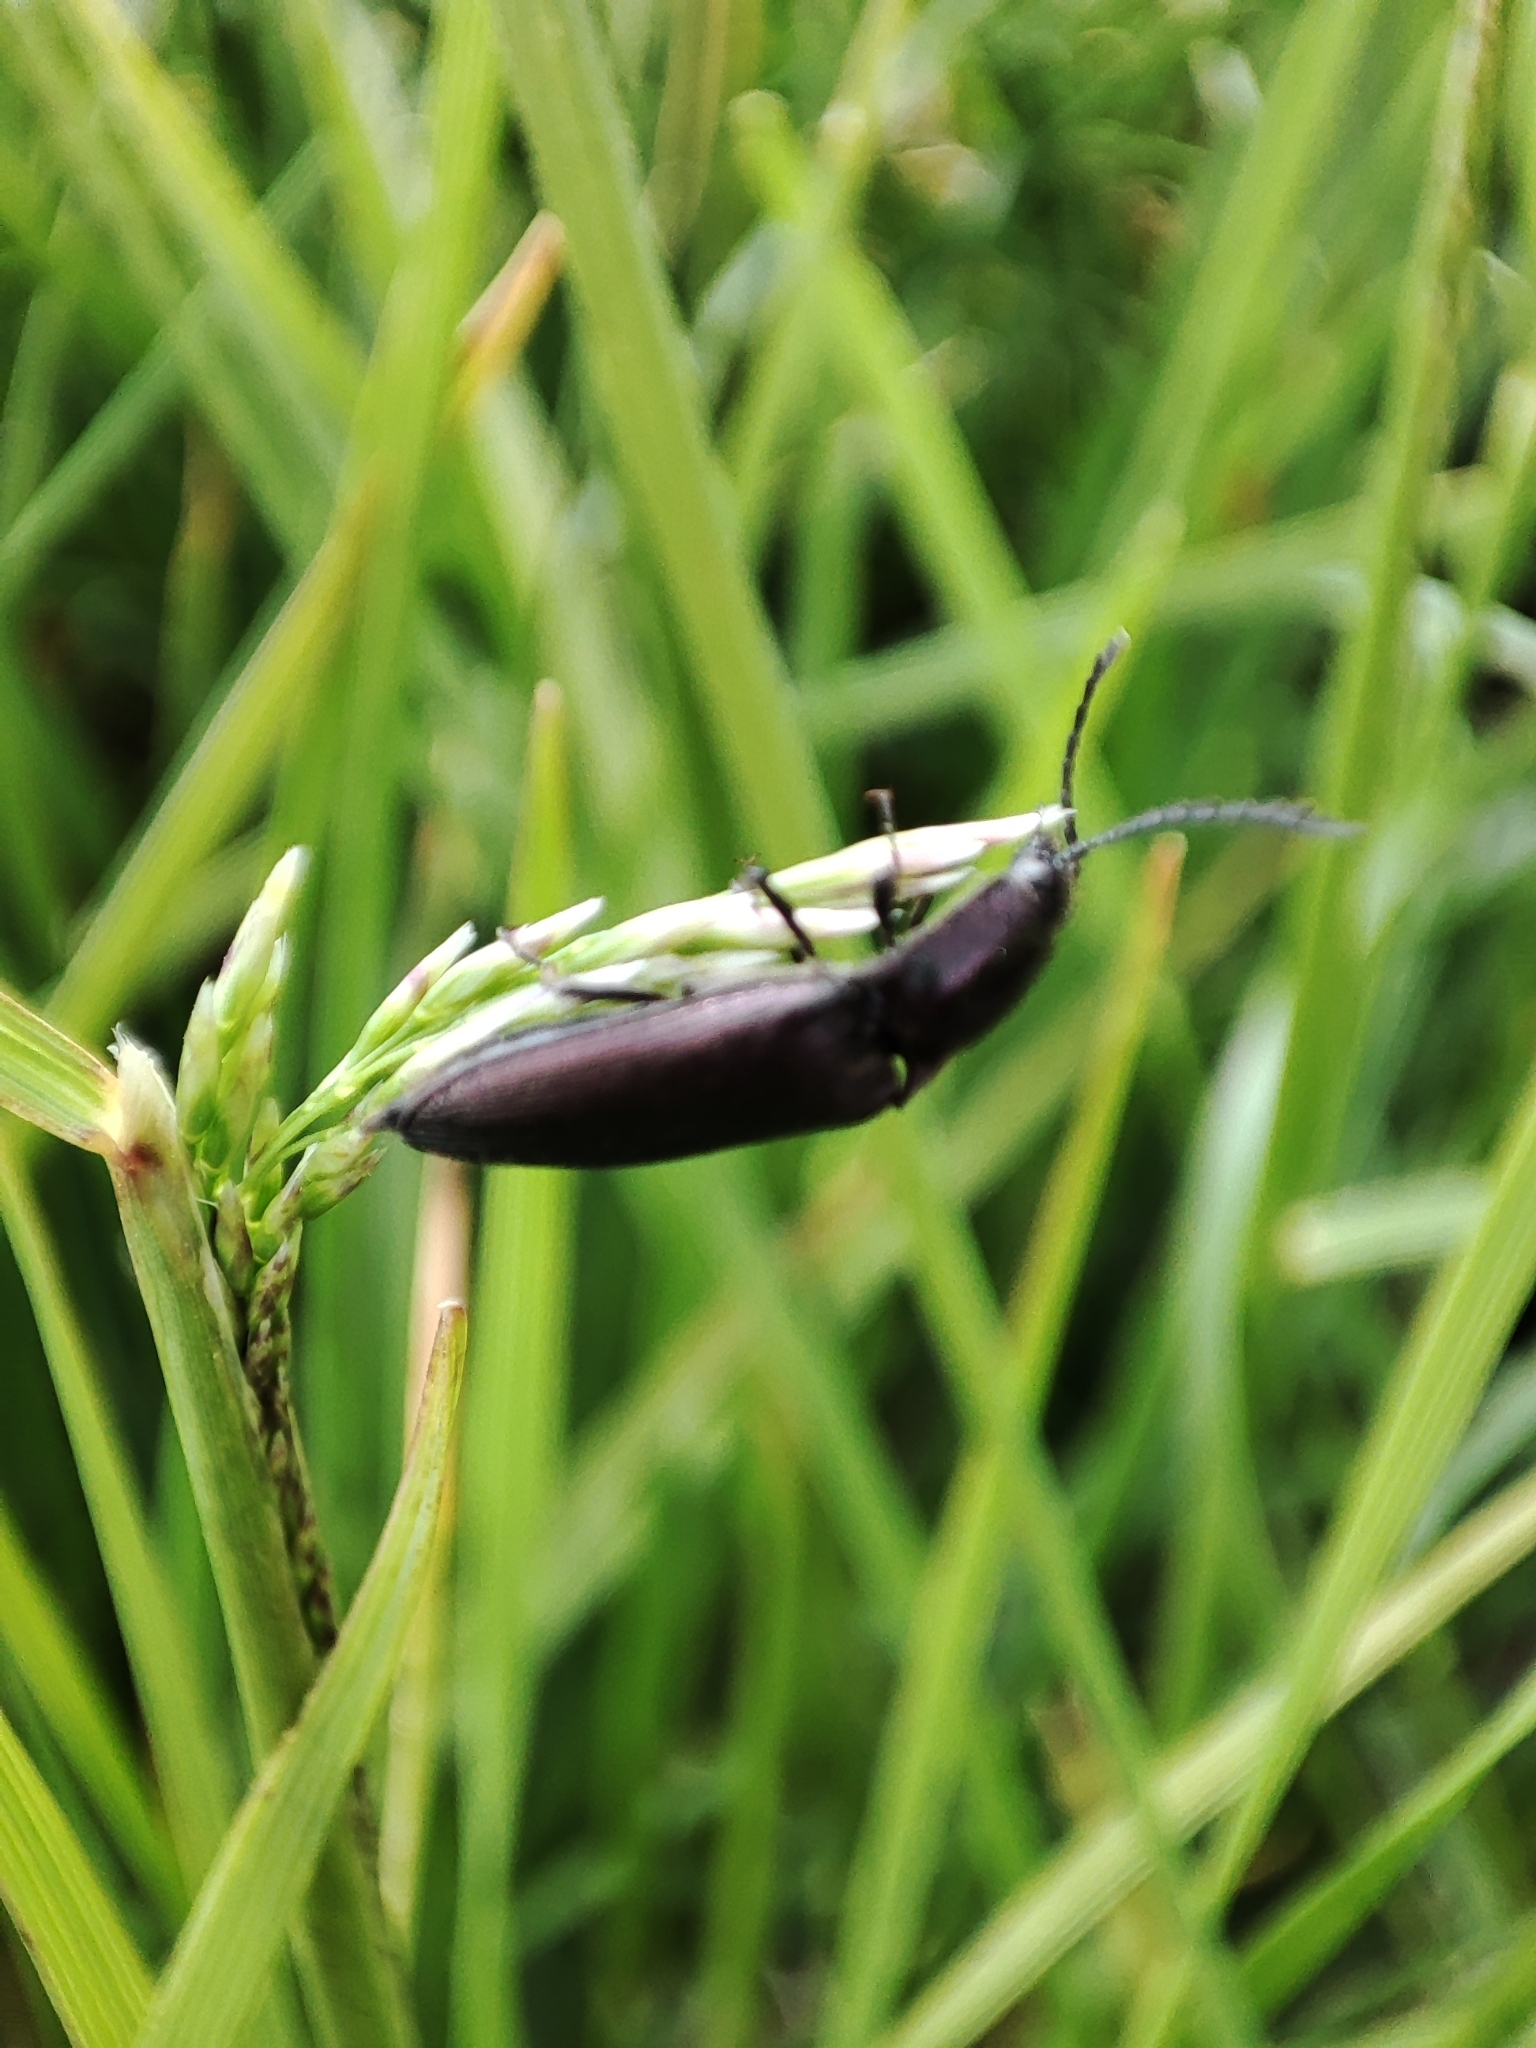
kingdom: Animalia
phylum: Arthropoda
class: Insecta
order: Coleoptera
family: Elateridae
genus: Ctenicera
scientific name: Ctenicera cuprea
